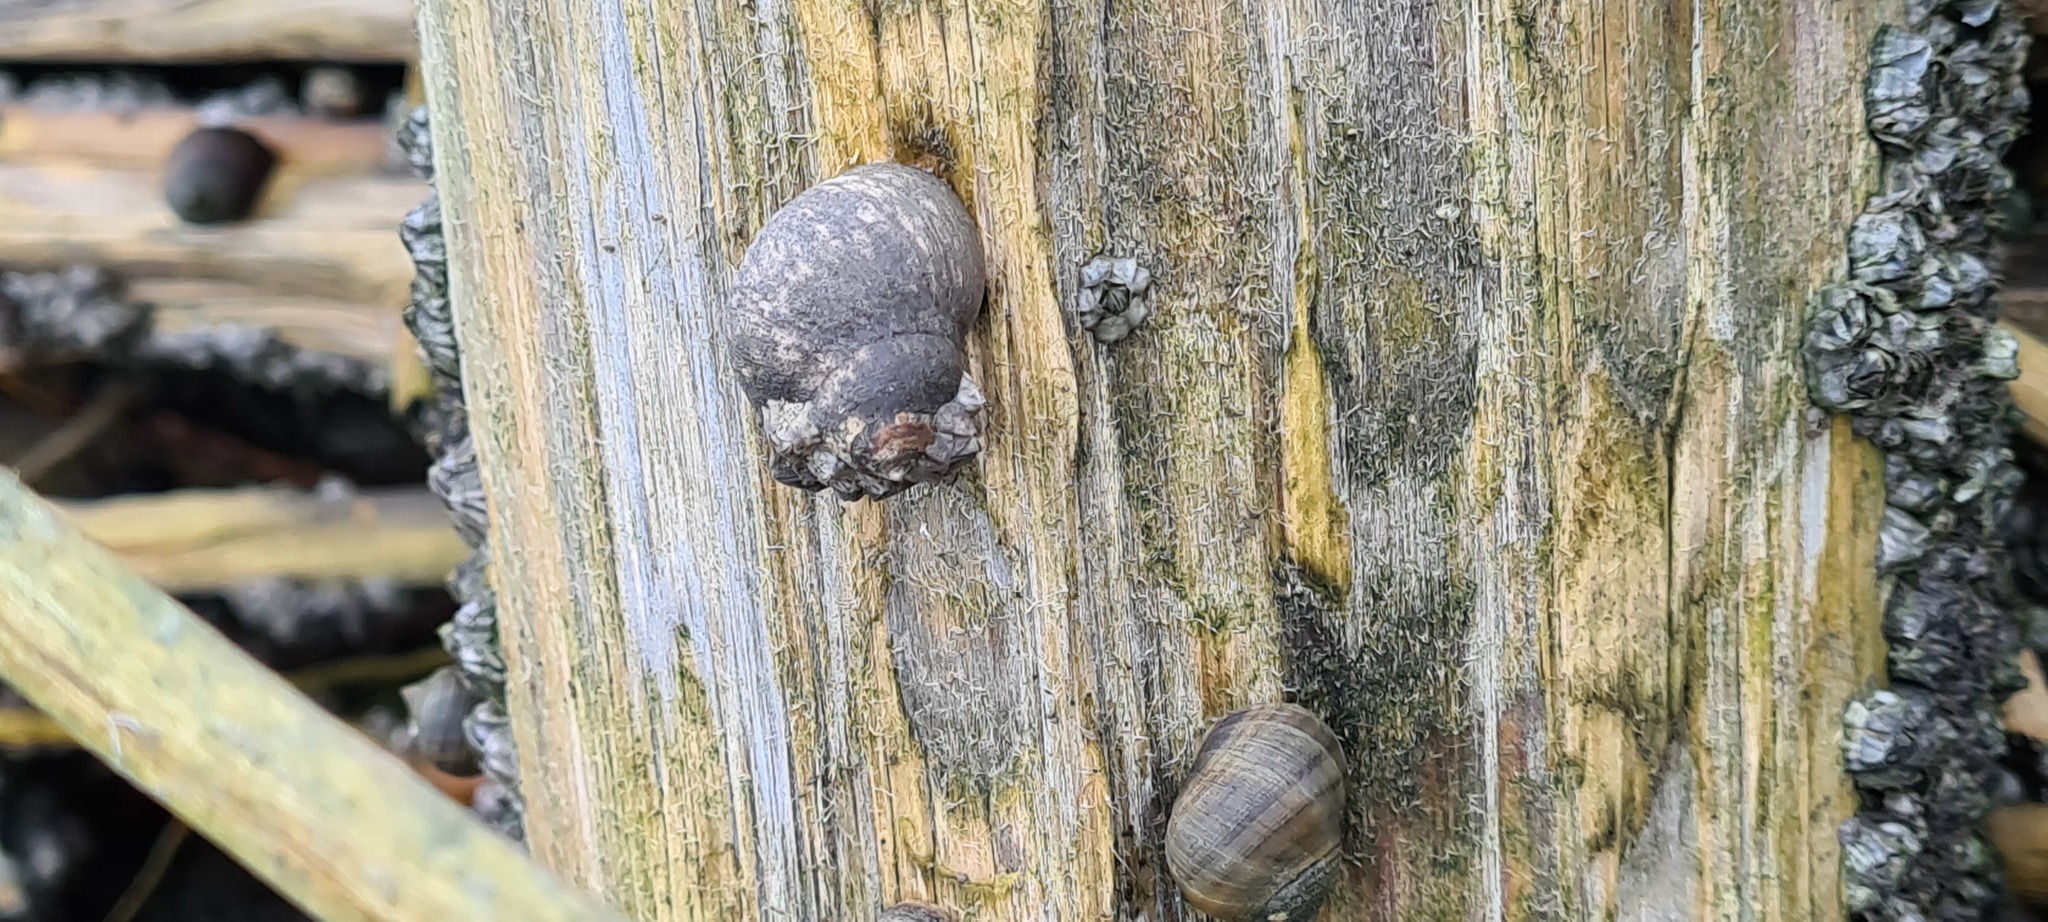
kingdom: Animalia
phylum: Mollusca
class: Gastropoda
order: Littorinimorpha
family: Littorinidae
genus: Littorina
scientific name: Littorina littorea
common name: Common periwinkle
